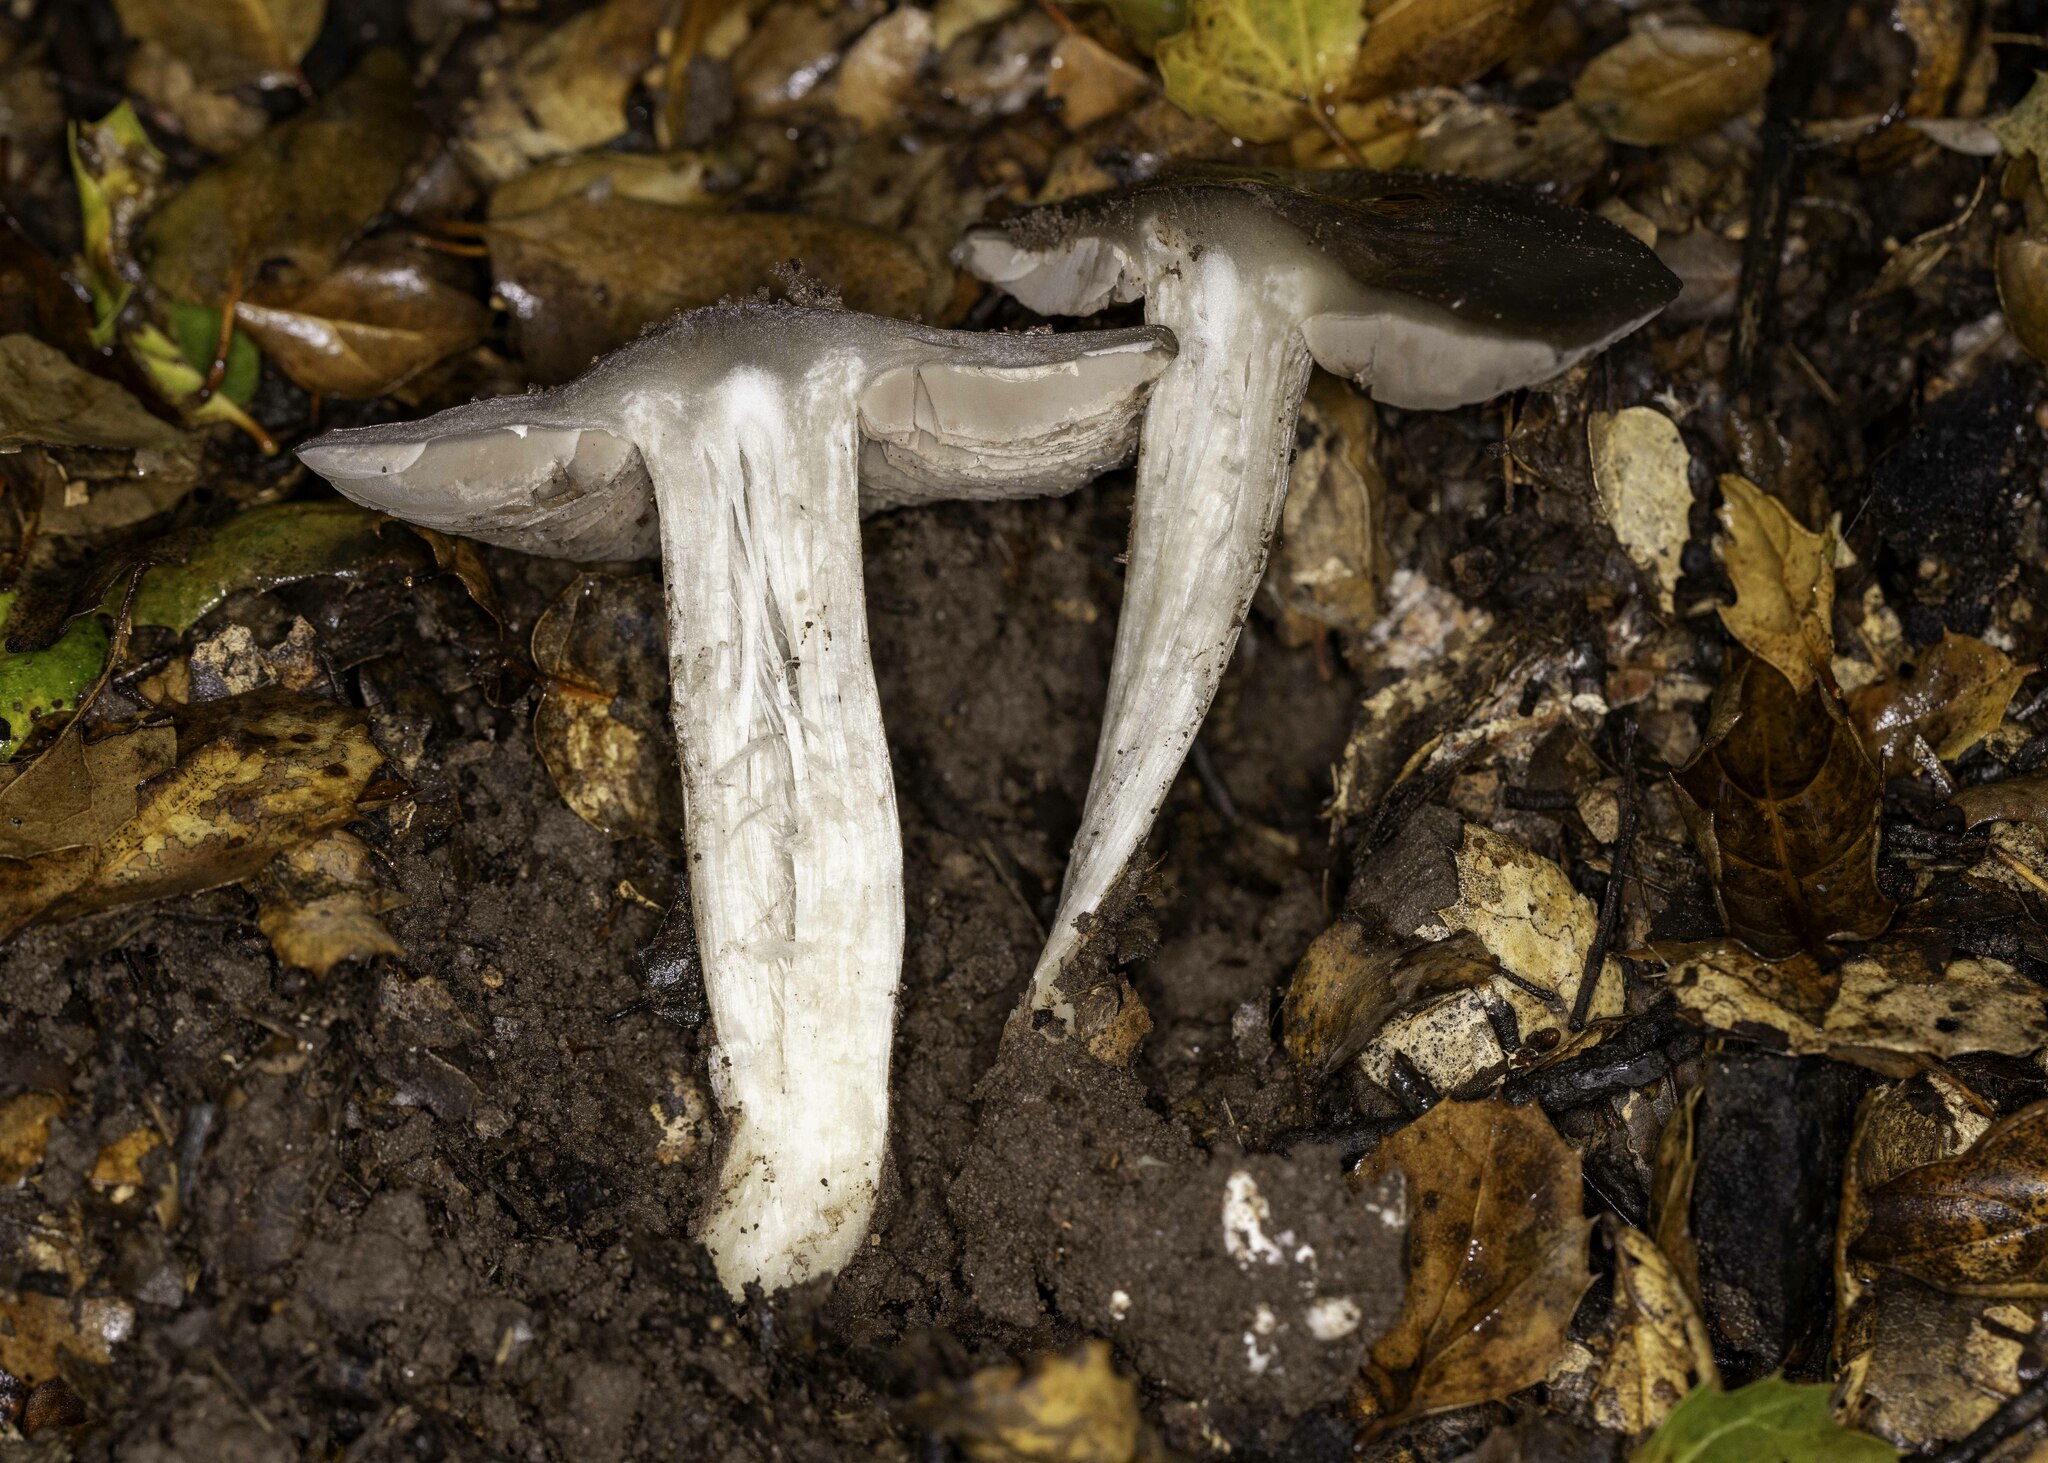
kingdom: Fungi
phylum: Basidiomycota
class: Agaricomycetes
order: Agaricales
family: Entolomataceae
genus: Entoloma
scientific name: Entoloma ferruginans
